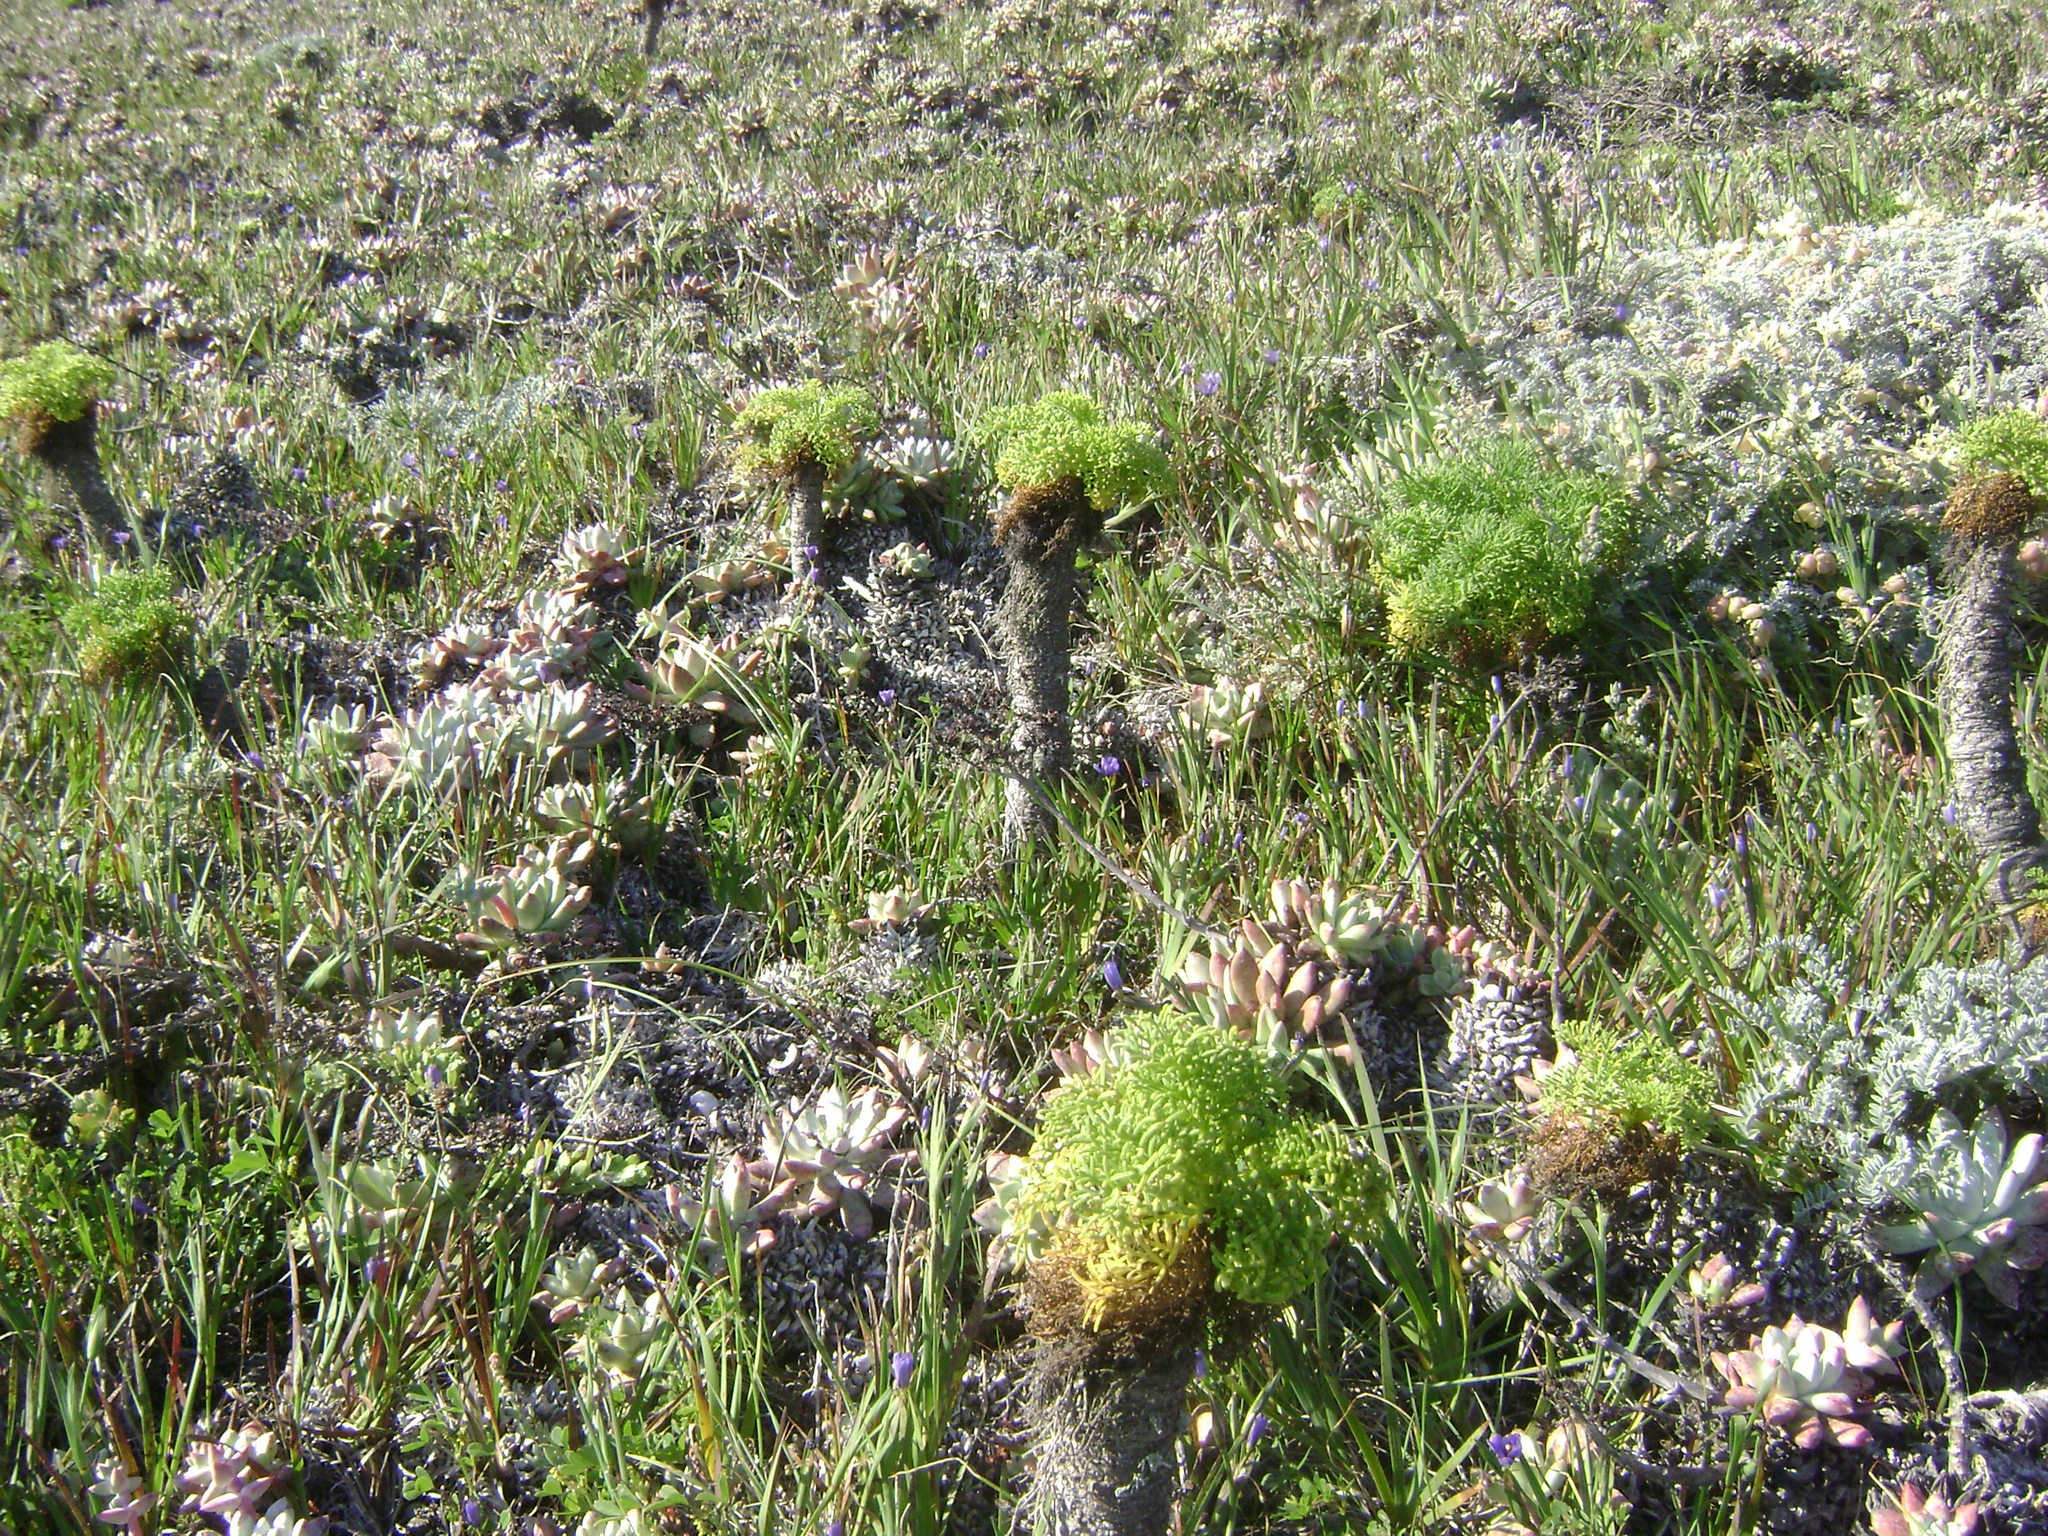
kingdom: Plantae
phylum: Tracheophyta
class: Magnoliopsida
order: Asterales
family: Asteraceae
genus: Coreopsis
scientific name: Coreopsis gigantea
